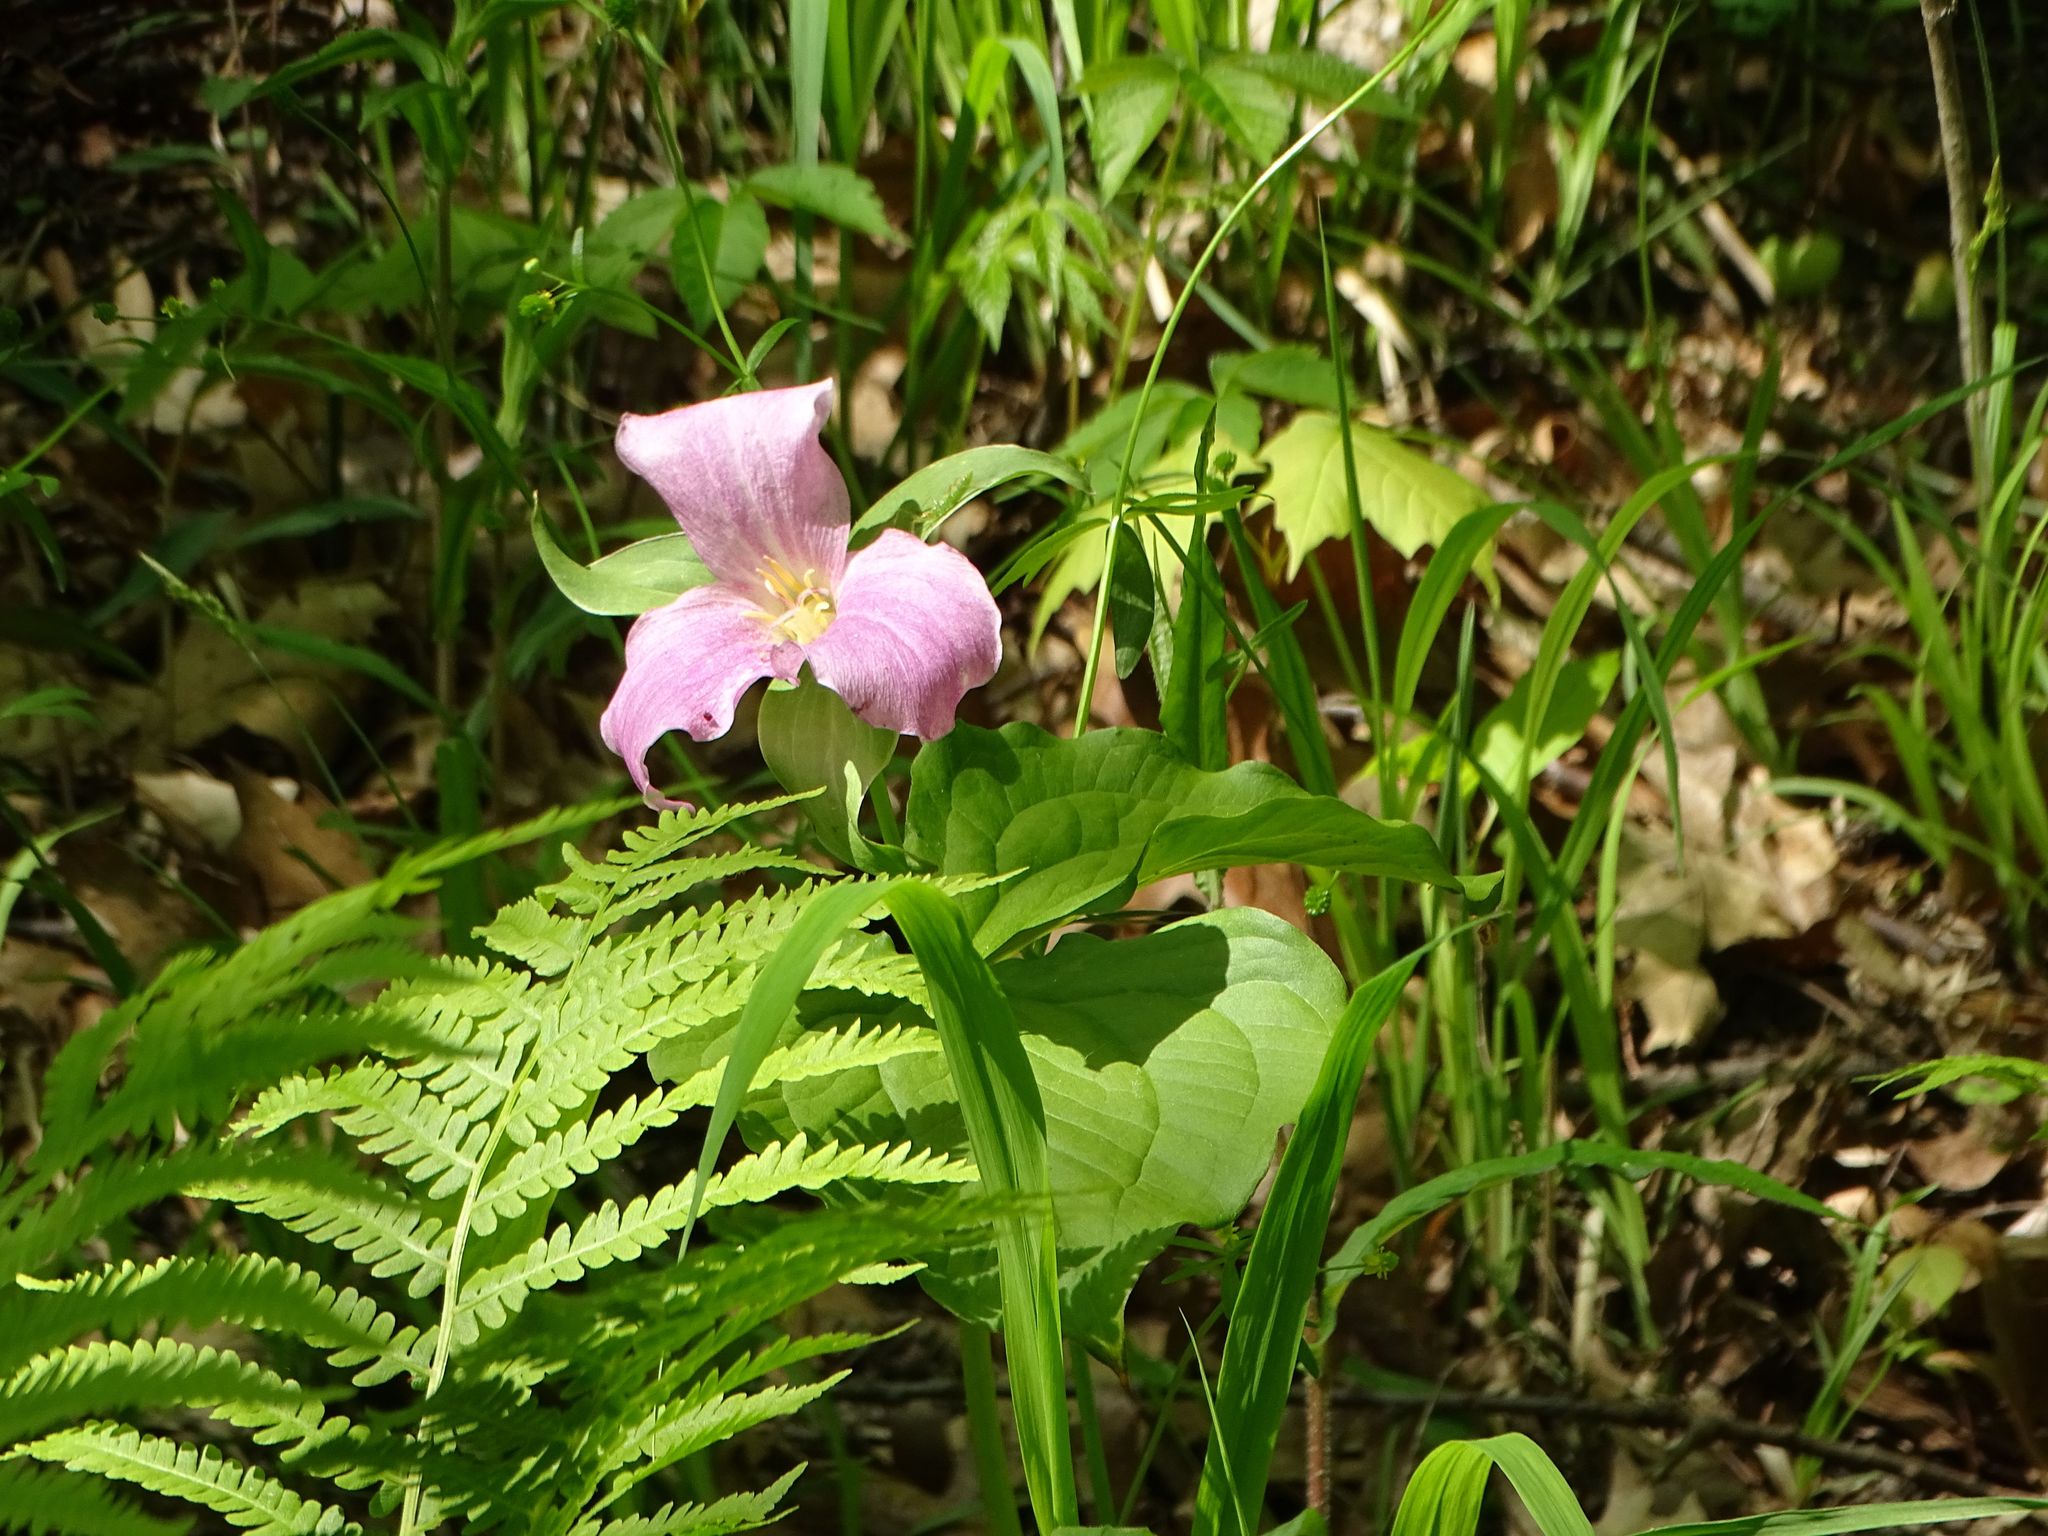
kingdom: Plantae
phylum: Tracheophyta
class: Liliopsida
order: Liliales
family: Melanthiaceae
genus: Trillium
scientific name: Trillium grandiflorum
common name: Great white trillium
